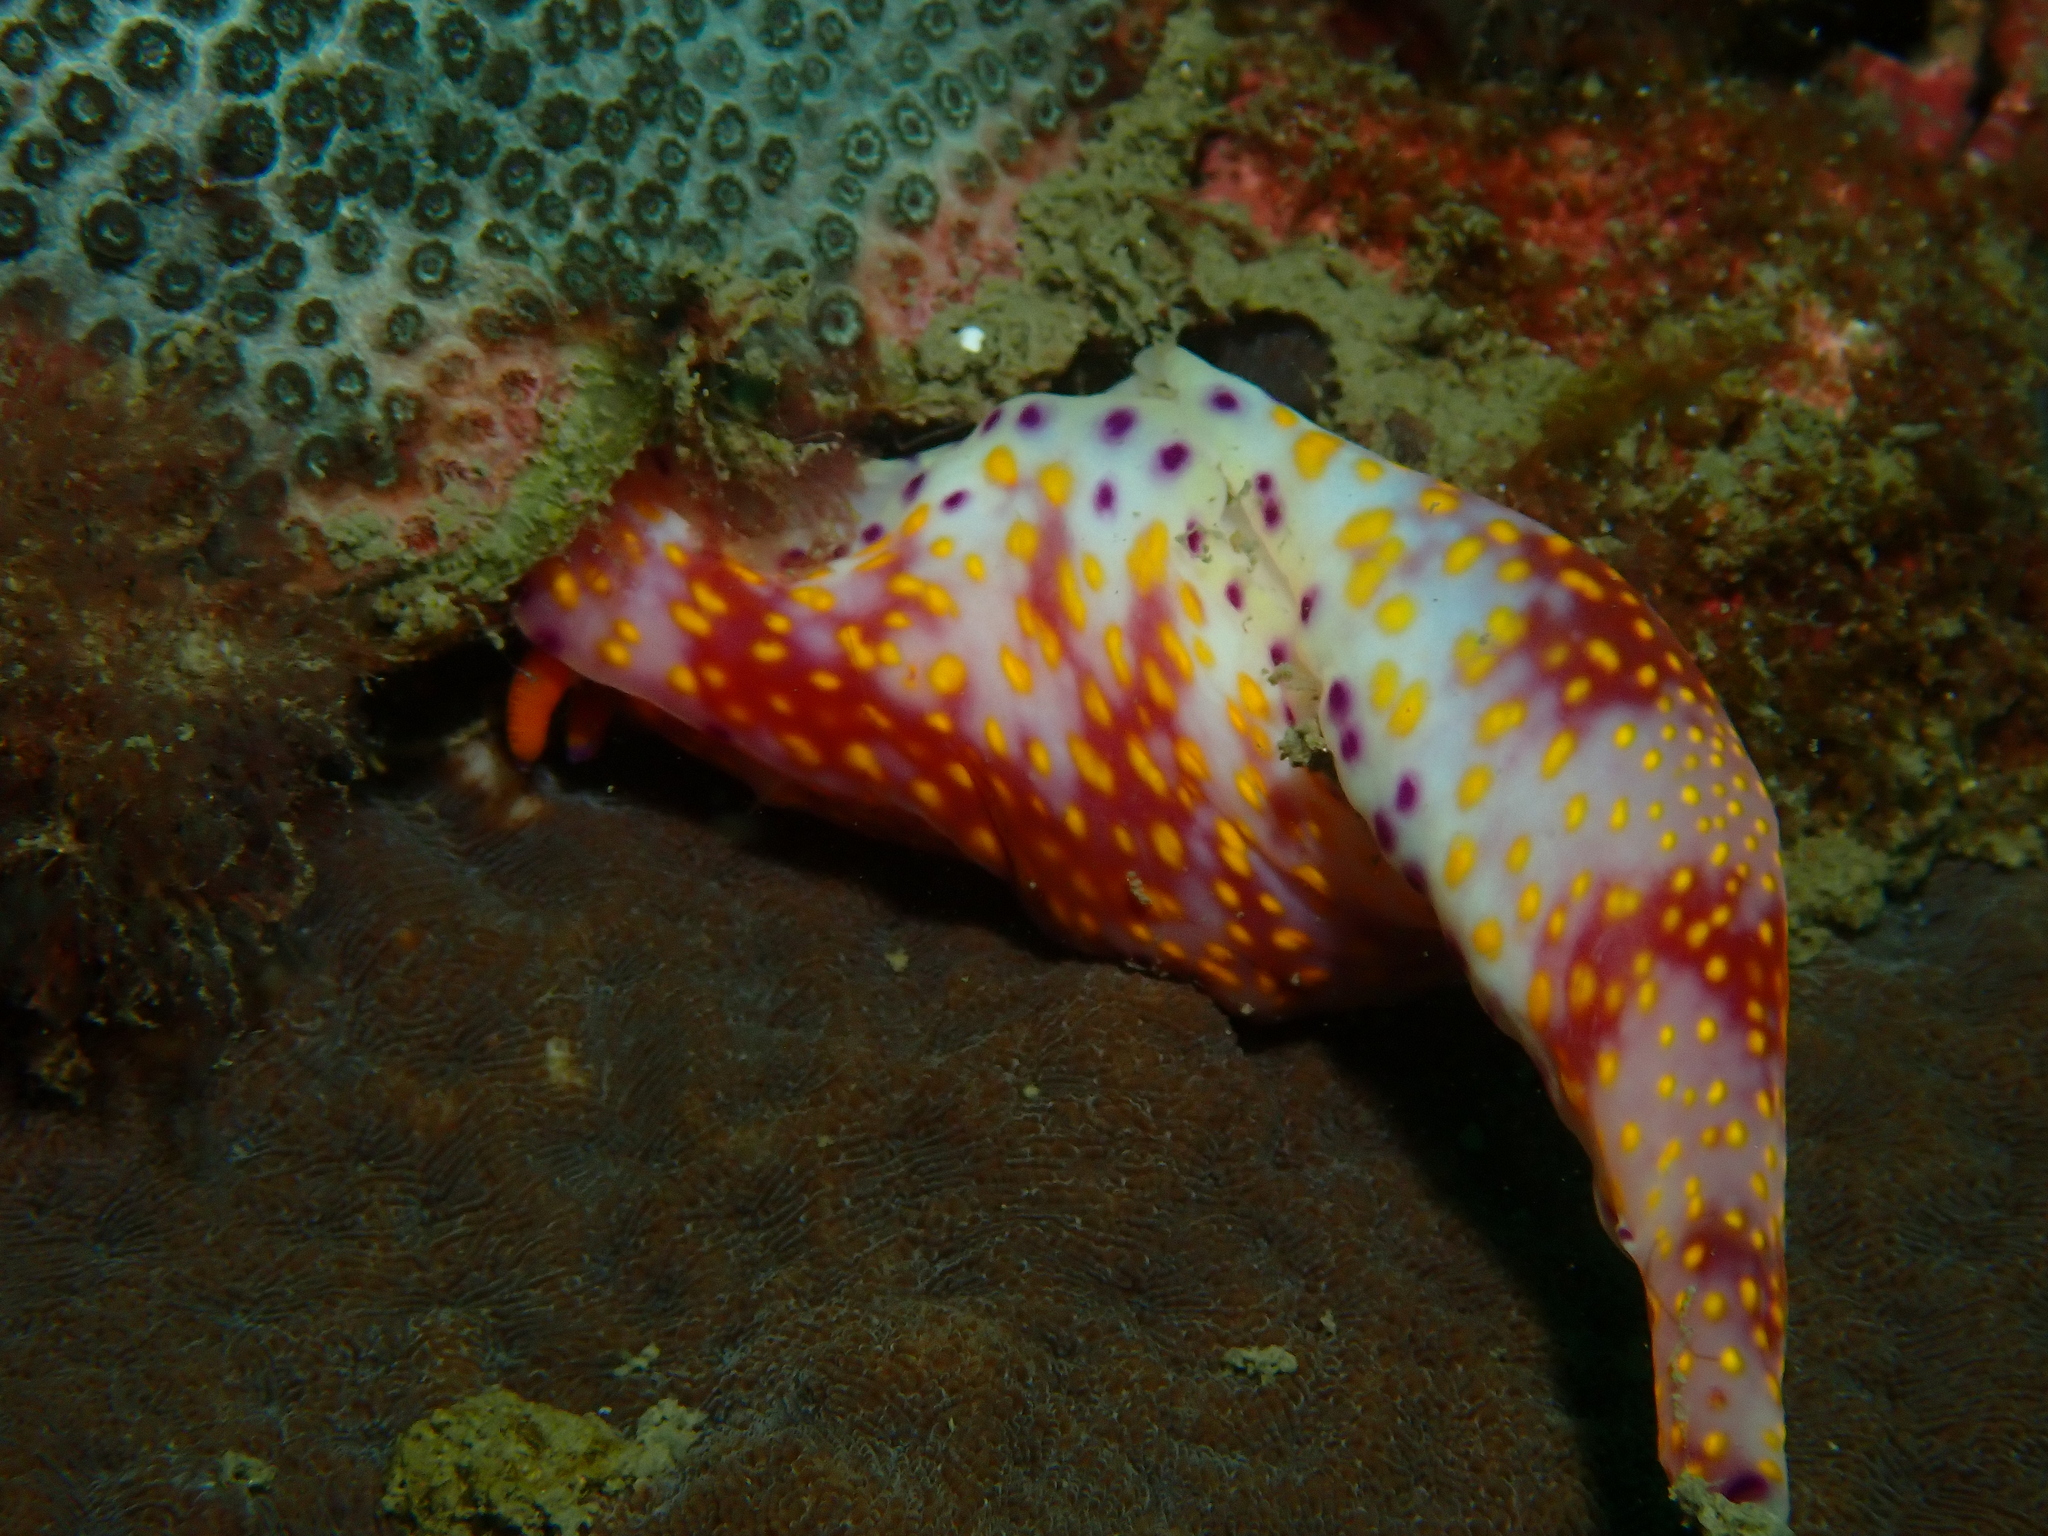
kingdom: Animalia
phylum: Mollusca
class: Gastropoda
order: Nudibranchia
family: Chromodorididae
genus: Ceratosoma
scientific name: Ceratosoma gracillimum
